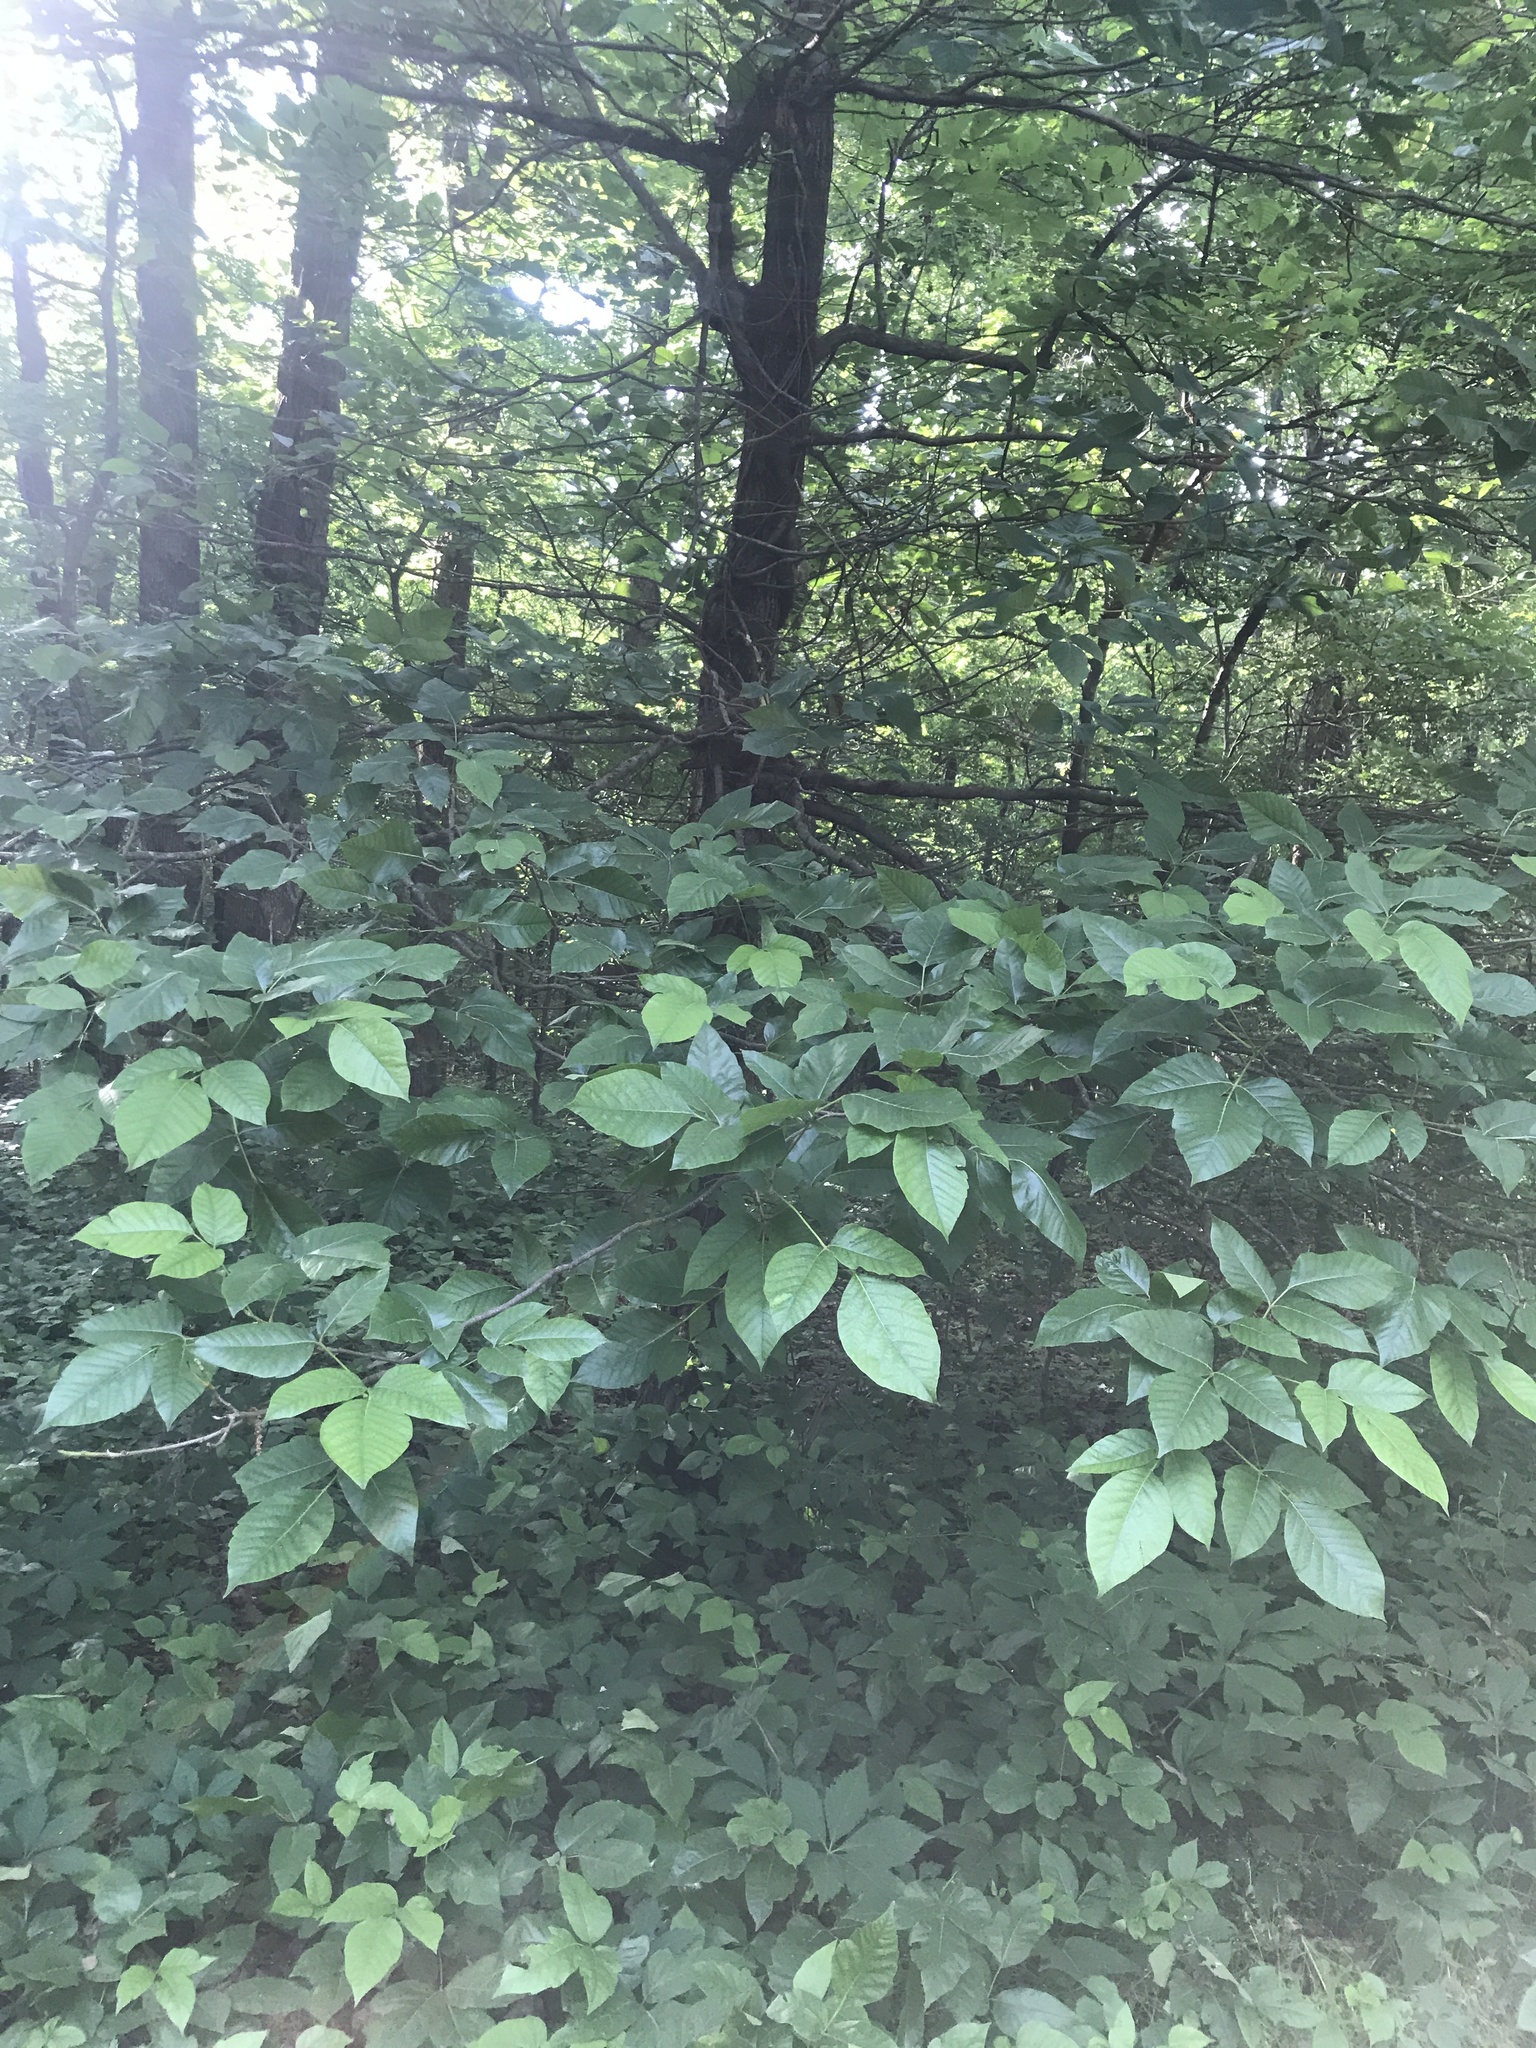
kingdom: Plantae
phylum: Tracheophyta
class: Magnoliopsida
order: Sapindales
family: Anacardiaceae
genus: Toxicodendron
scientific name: Toxicodendron radicans
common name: Poison ivy
